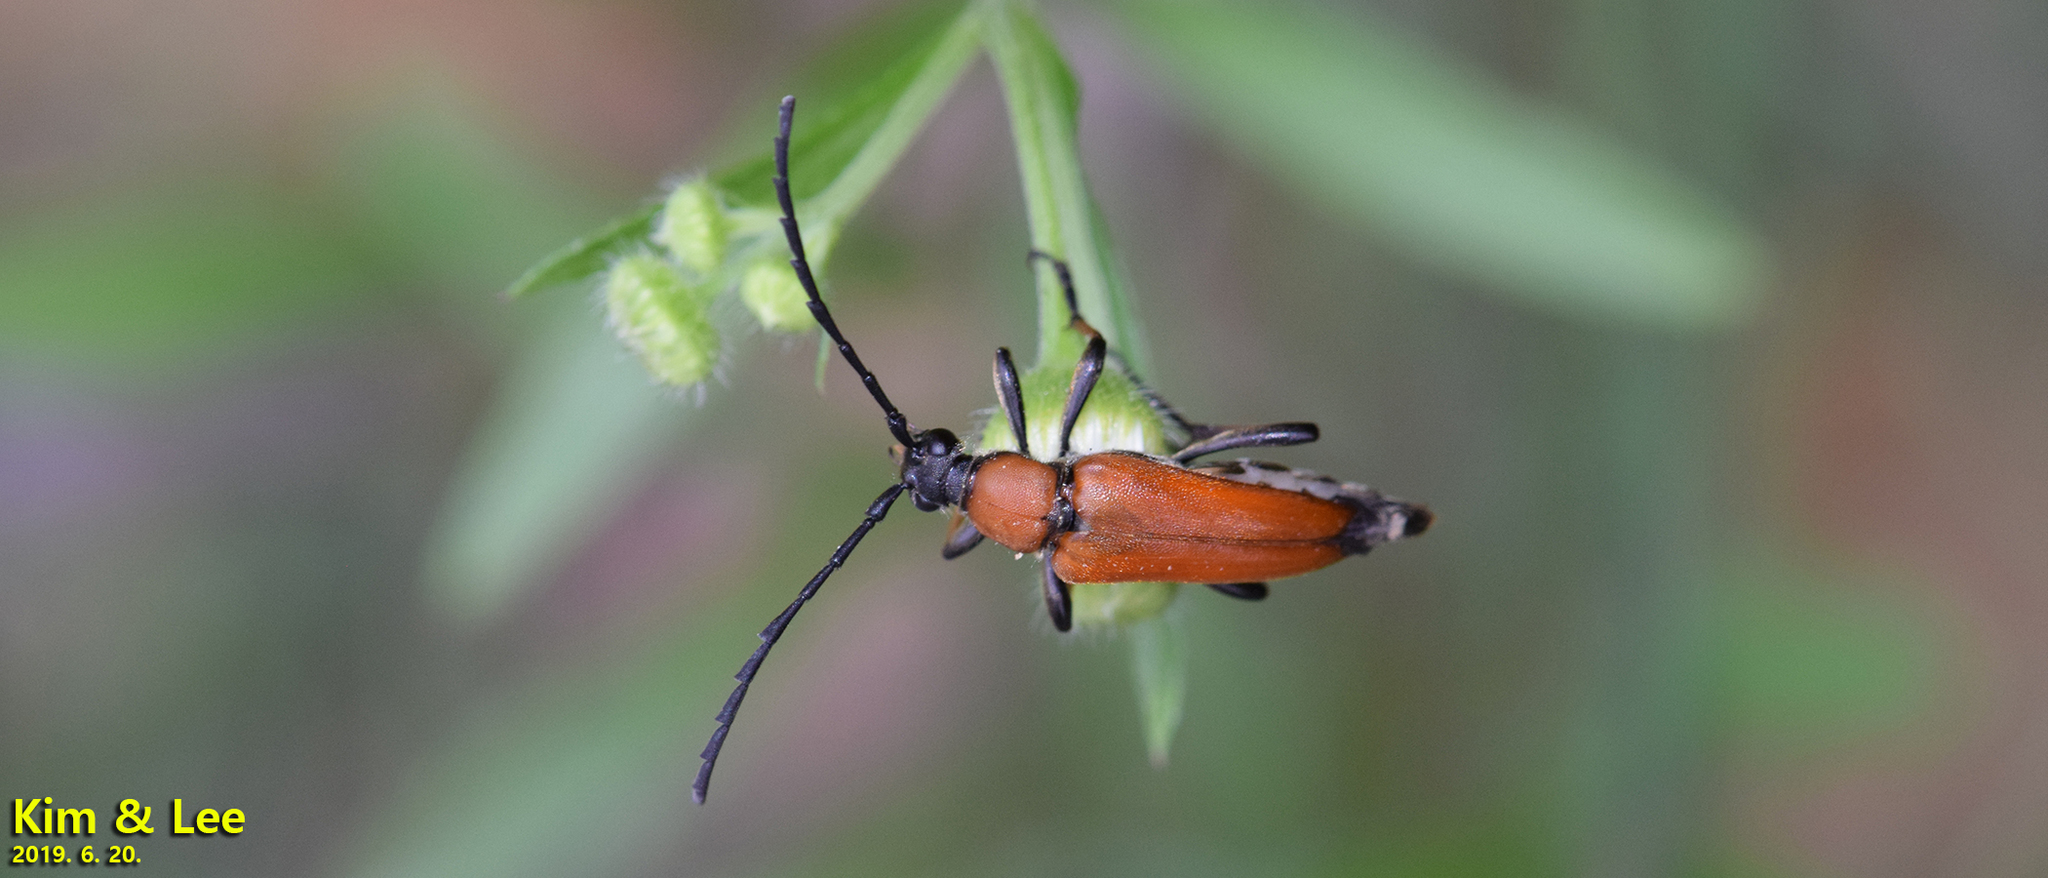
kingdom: Animalia
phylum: Arthropoda
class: Insecta
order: Coleoptera
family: Cerambycidae
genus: Stictoleptura
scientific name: Stictoleptura dichroa
